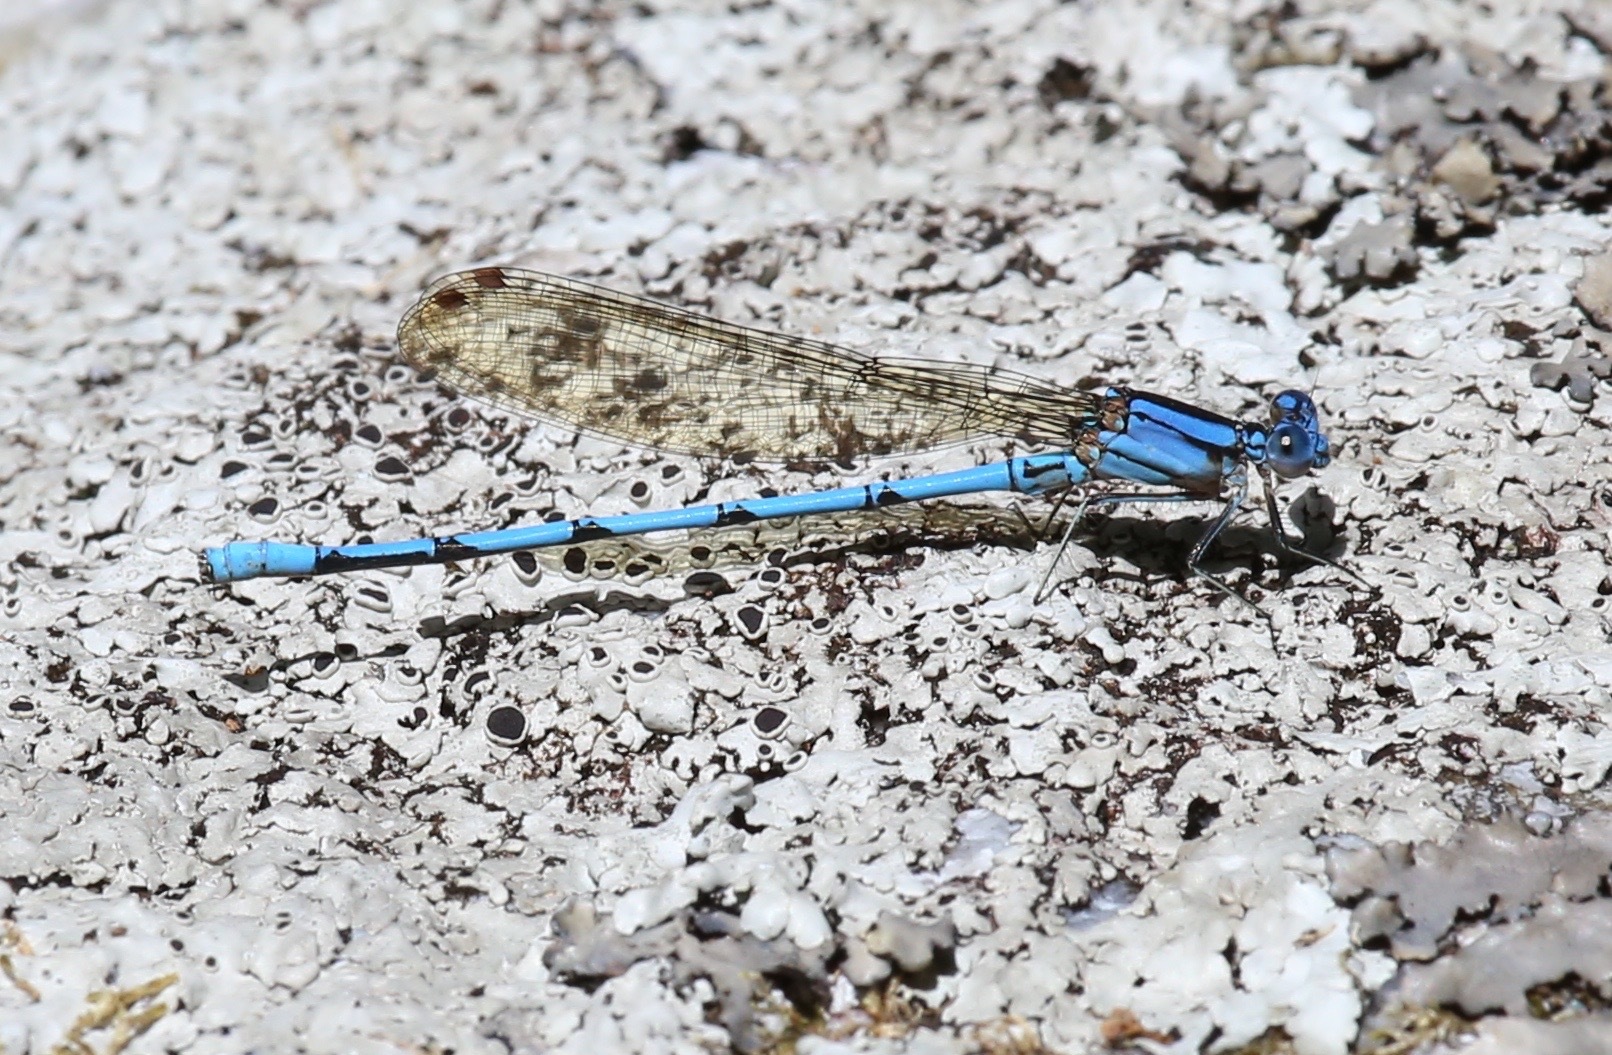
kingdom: Animalia
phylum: Arthropoda
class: Insecta
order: Odonata
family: Coenagrionidae
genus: Argia
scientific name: Argia anceps
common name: Cerulean dancer
